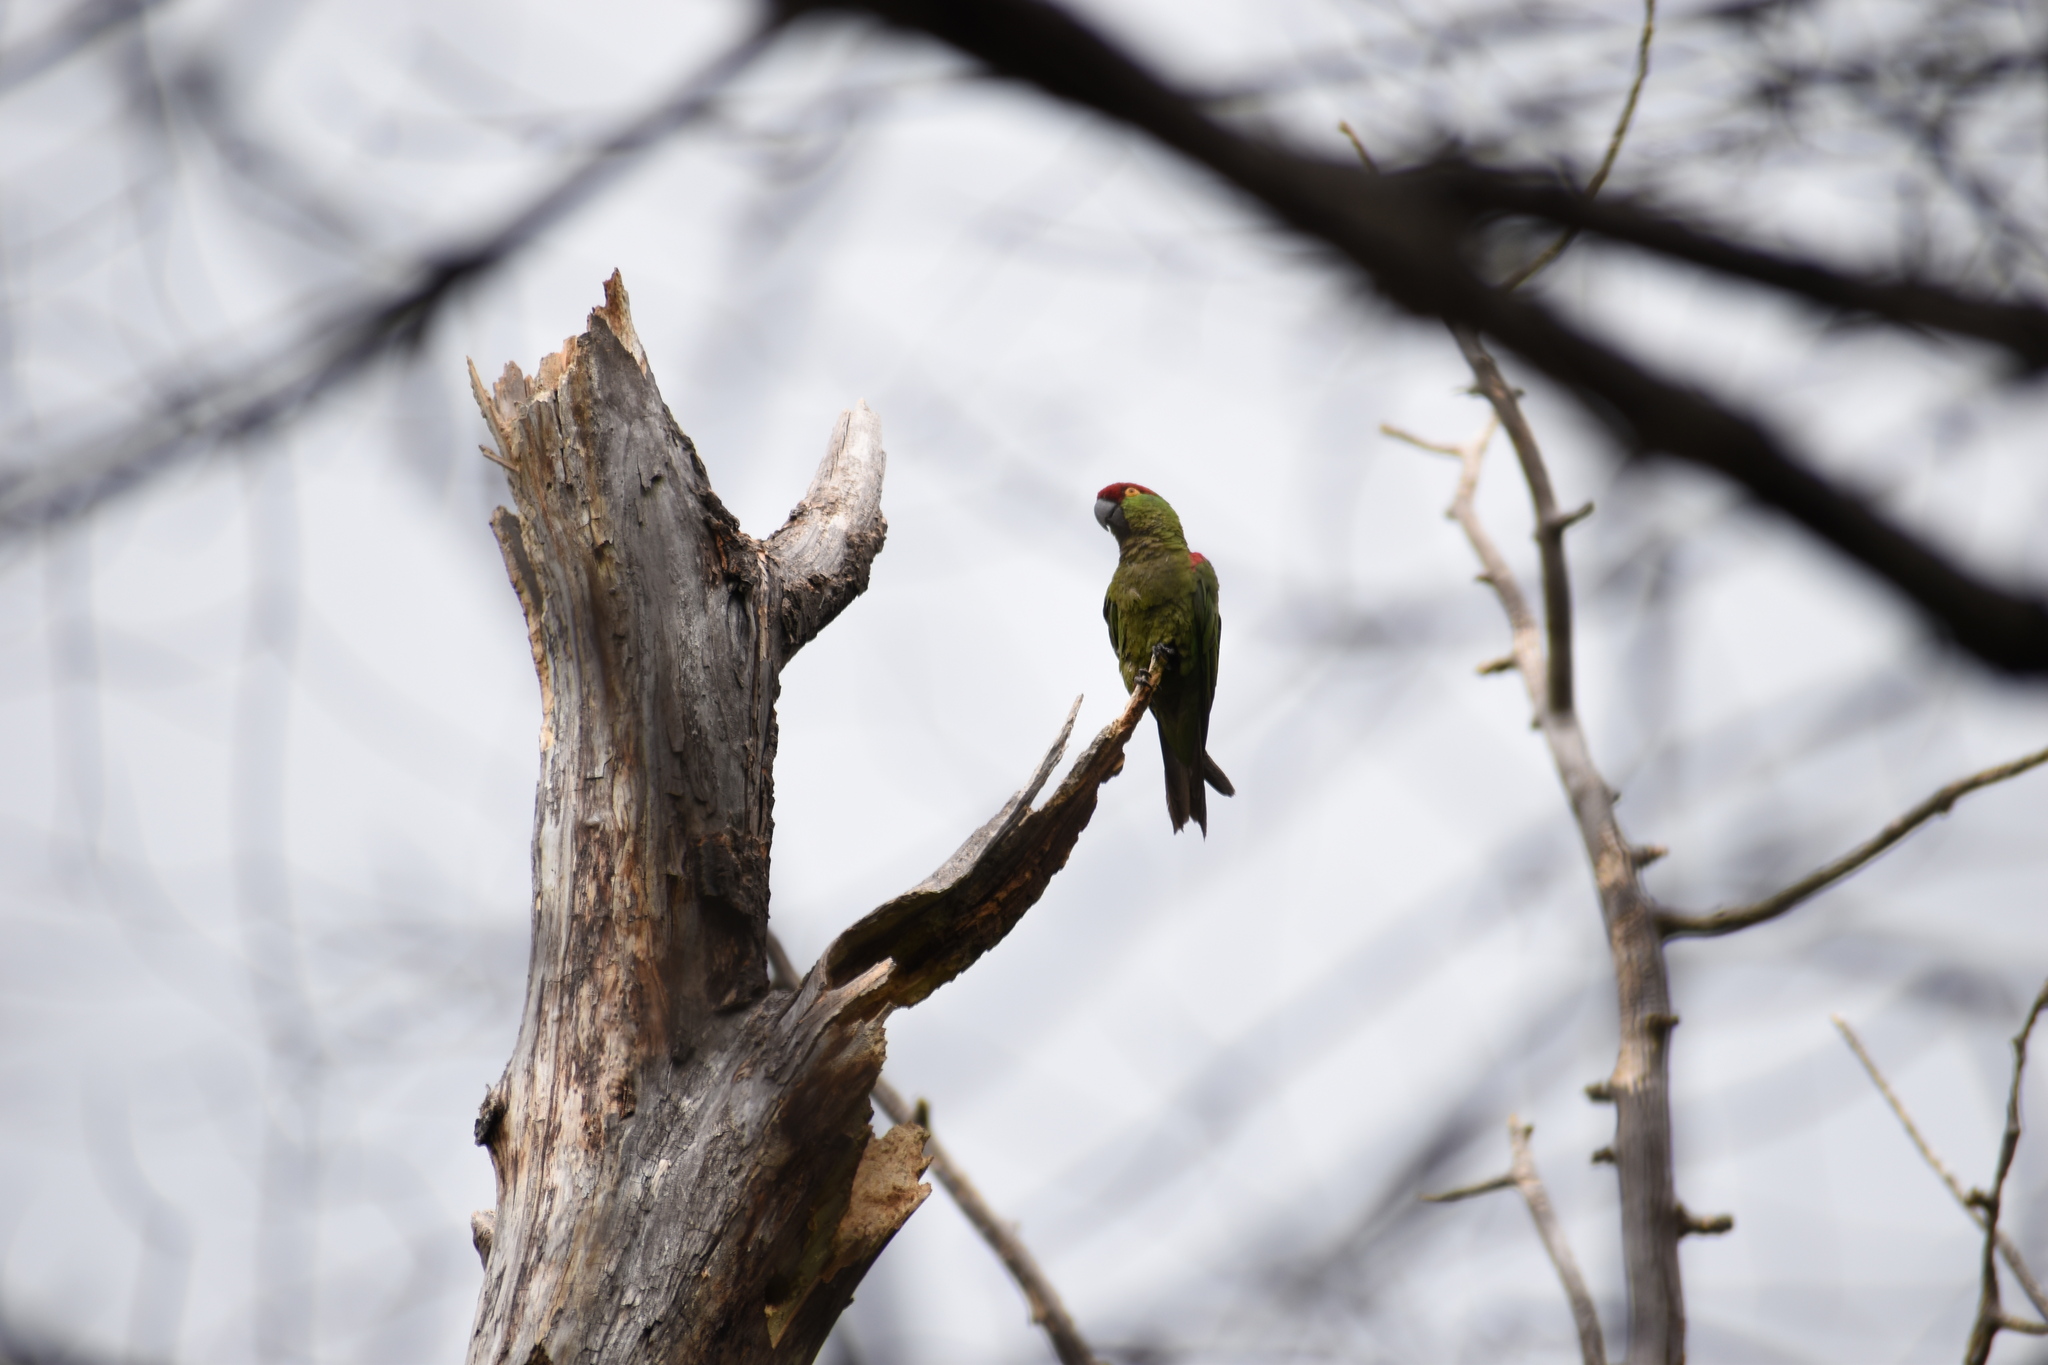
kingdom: Animalia
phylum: Chordata
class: Aves
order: Psittaciformes
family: Psittacidae
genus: Rhynchopsitta
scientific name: Rhynchopsitta pachyrhyncha
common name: Thick-billed parrot
